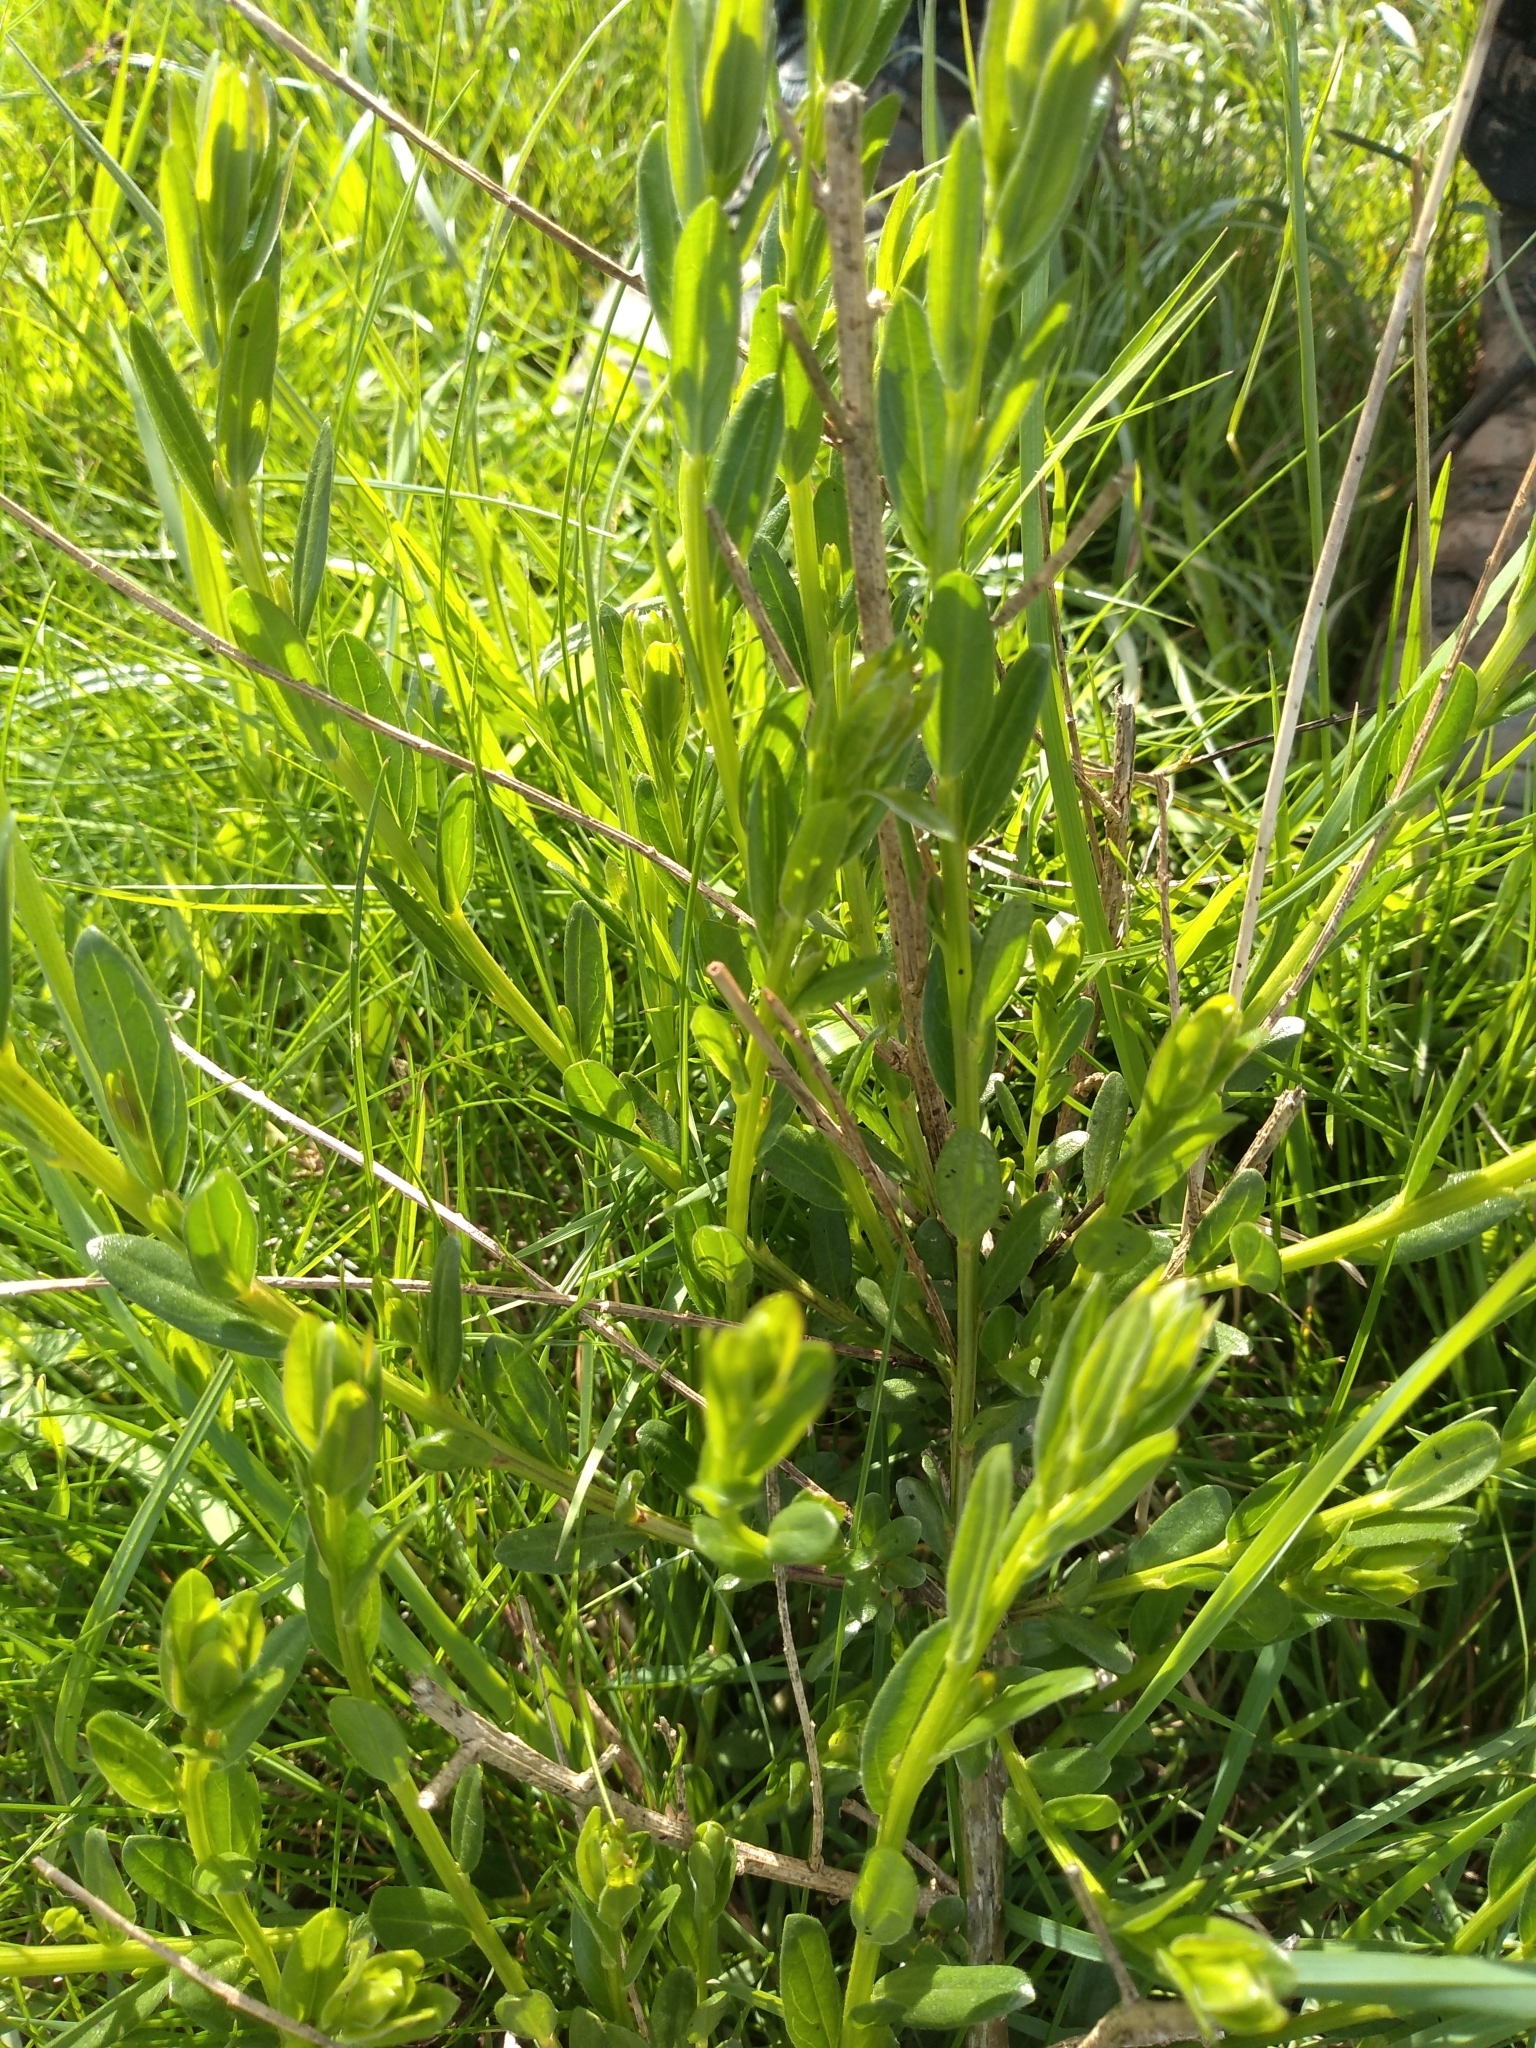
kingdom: Plantae
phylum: Tracheophyta
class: Magnoliopsida
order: Fabales
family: Fabaceae
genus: Genista
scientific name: Genista tinctoria
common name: Dyer's greenweed
